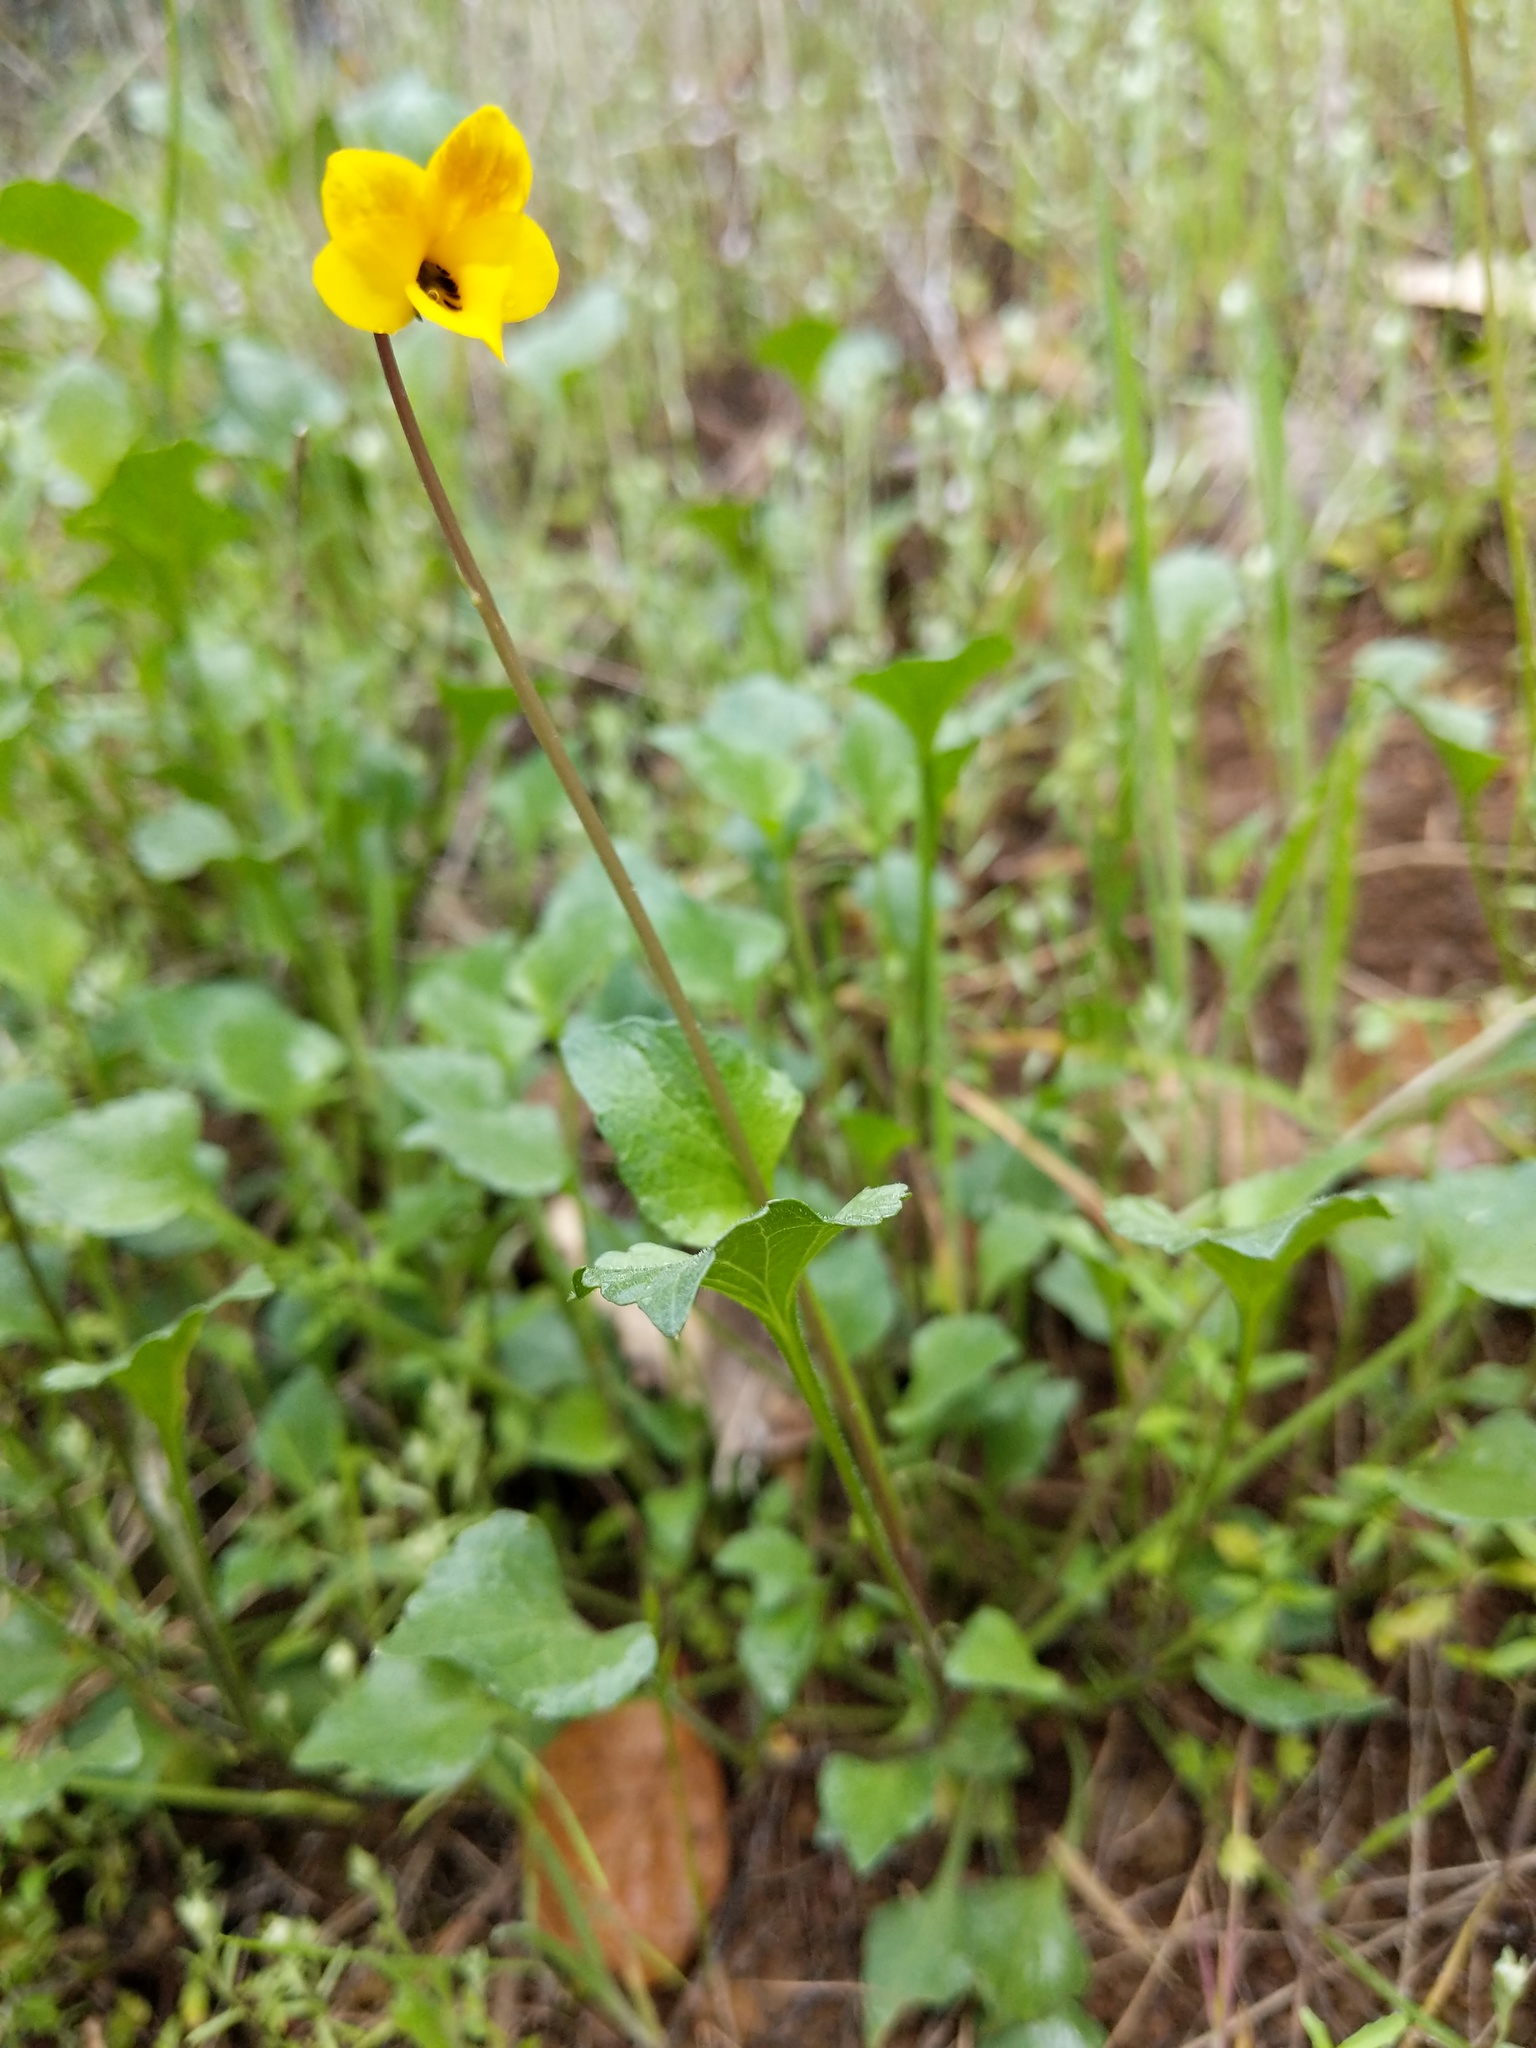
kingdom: Plantae
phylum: Tracheophyta
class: Magnoliopsida
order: Malpighiales
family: Violaceae
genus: Viola
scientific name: Viola pedunculata
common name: California golden violet
